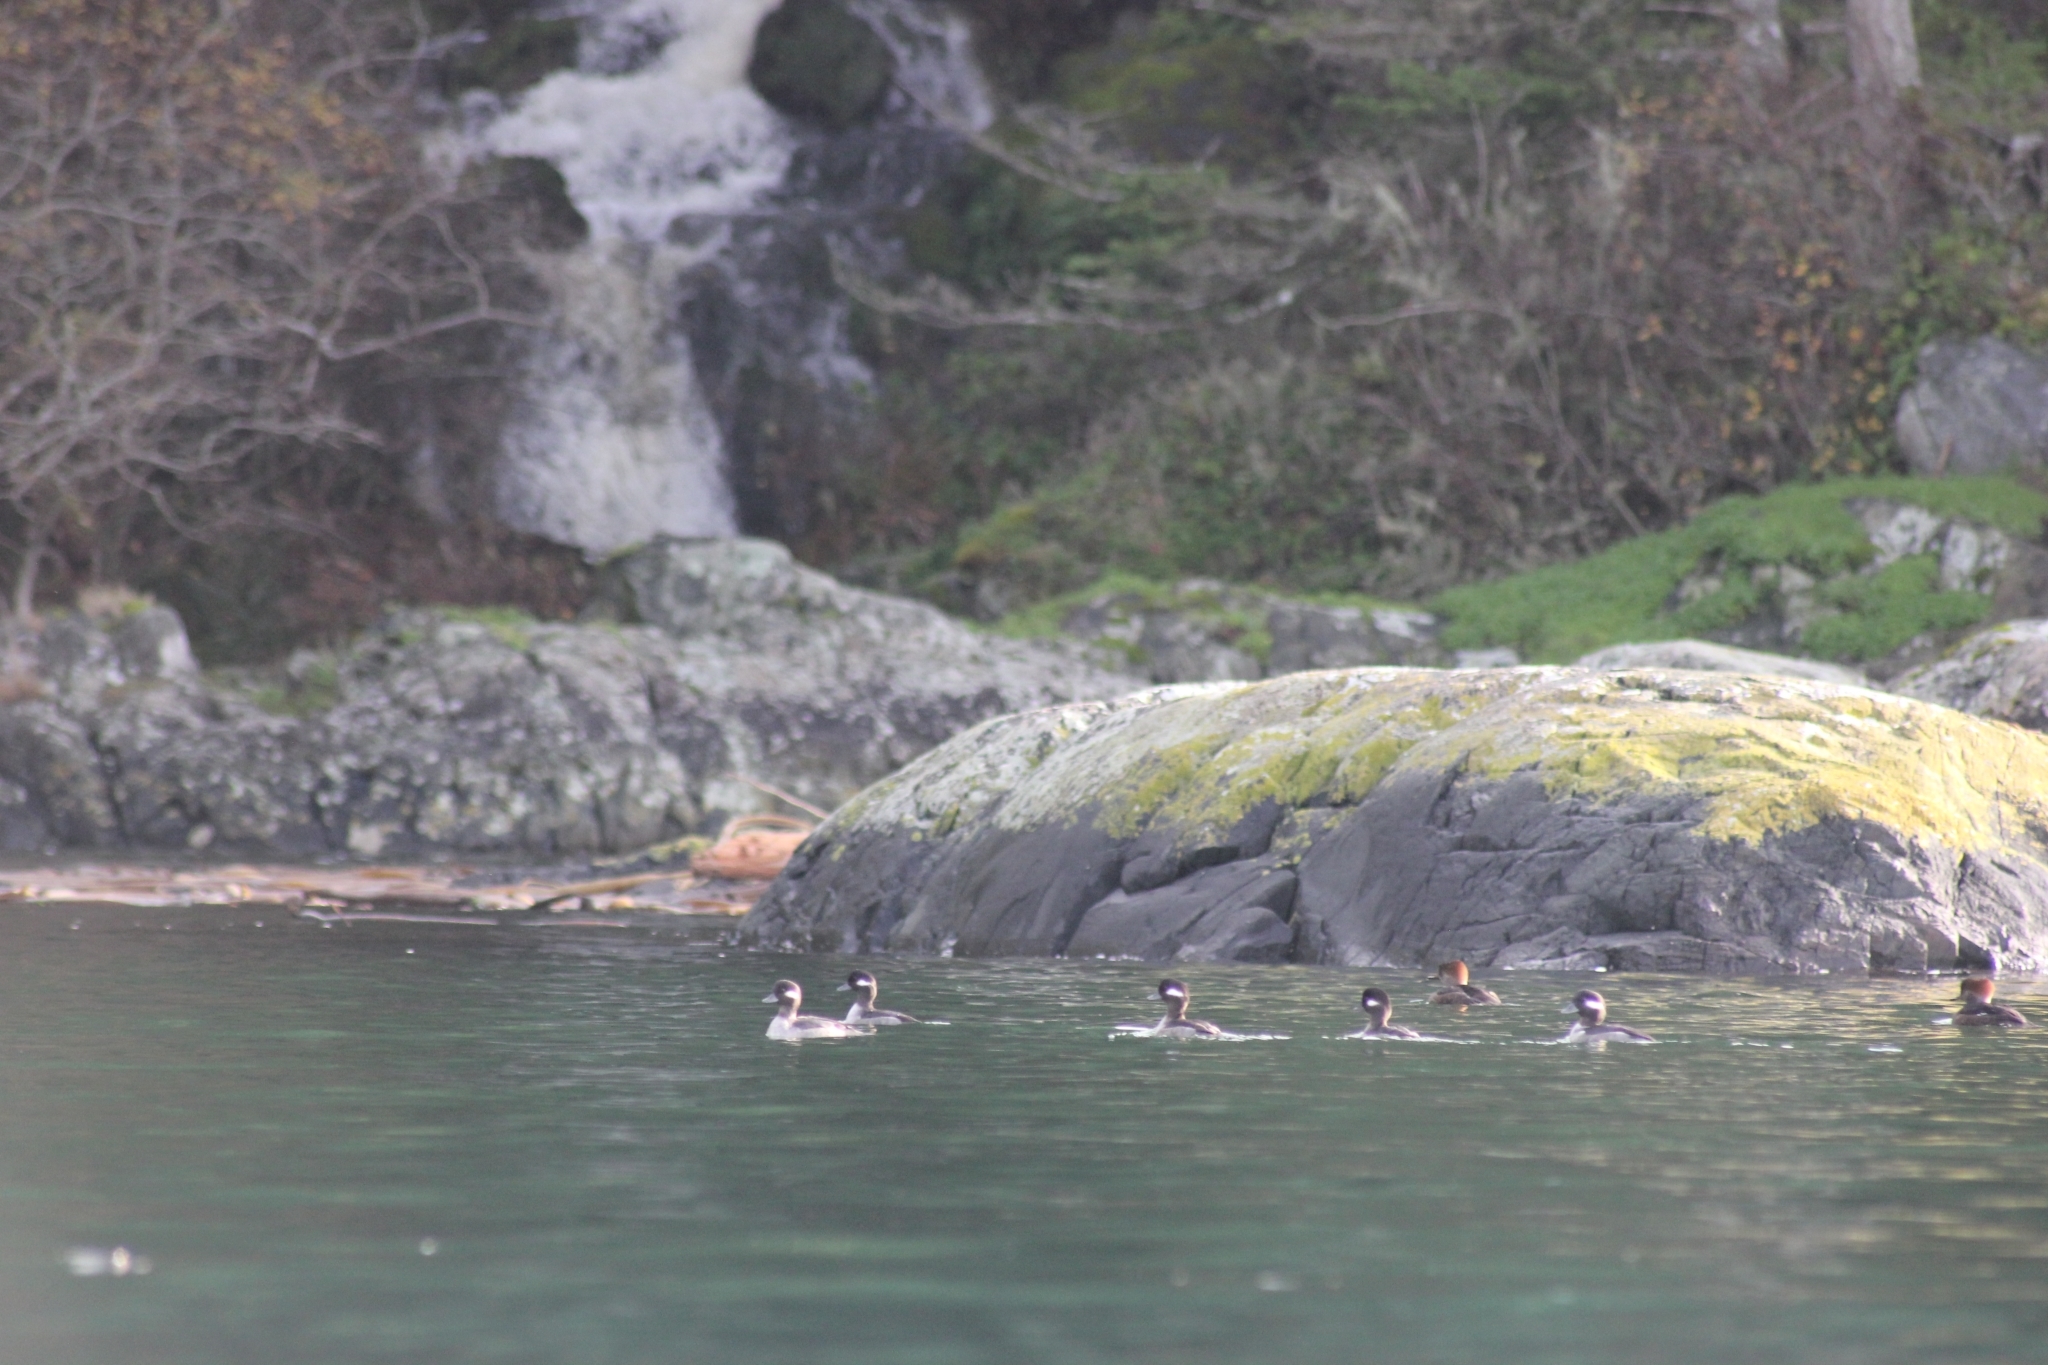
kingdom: Animalia
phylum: Chordata
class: Aves
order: Anseriformes
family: Anatidae
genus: Bucephala
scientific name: Bucephala albeola
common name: Bufflehead
